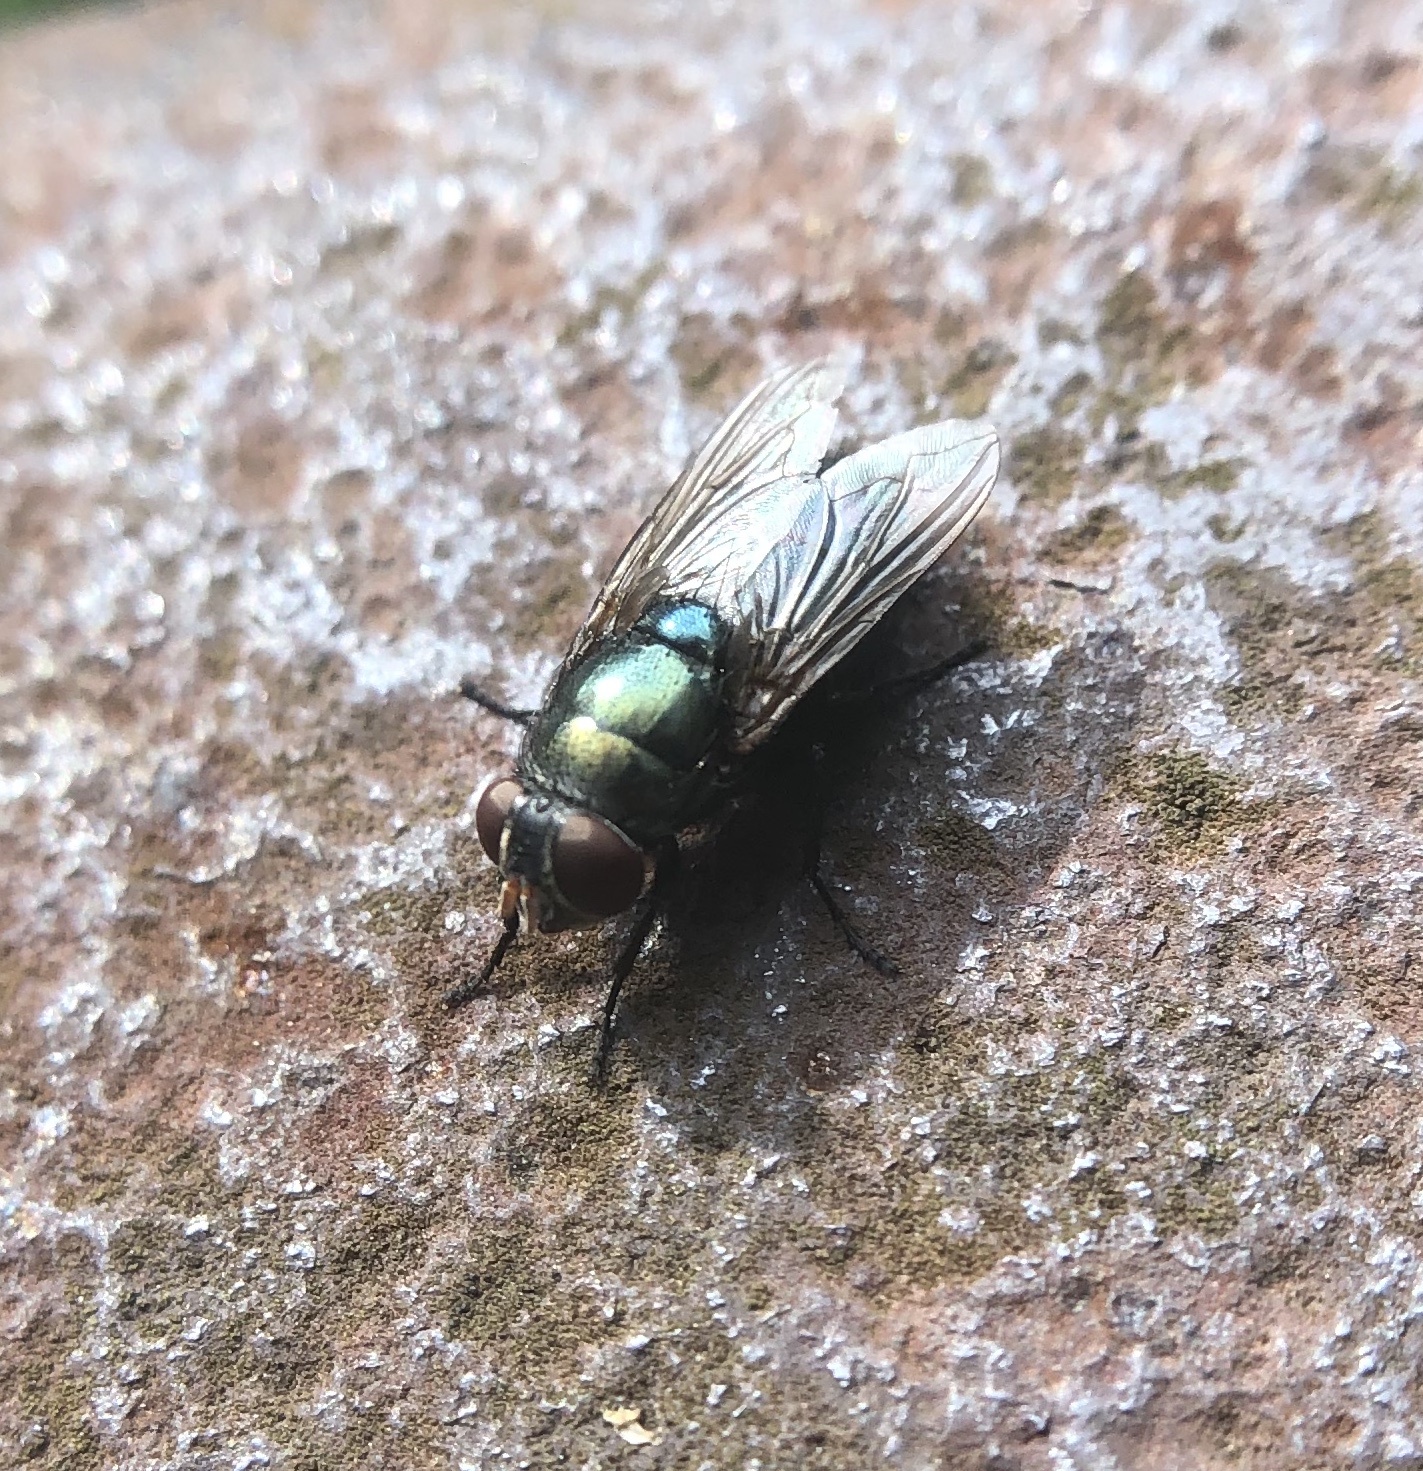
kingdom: Animalia
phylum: Arthropoda
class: Insecta
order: Diptera
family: Calliphoridae
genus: Phormia
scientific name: Phormia regina
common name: Black blow fly
